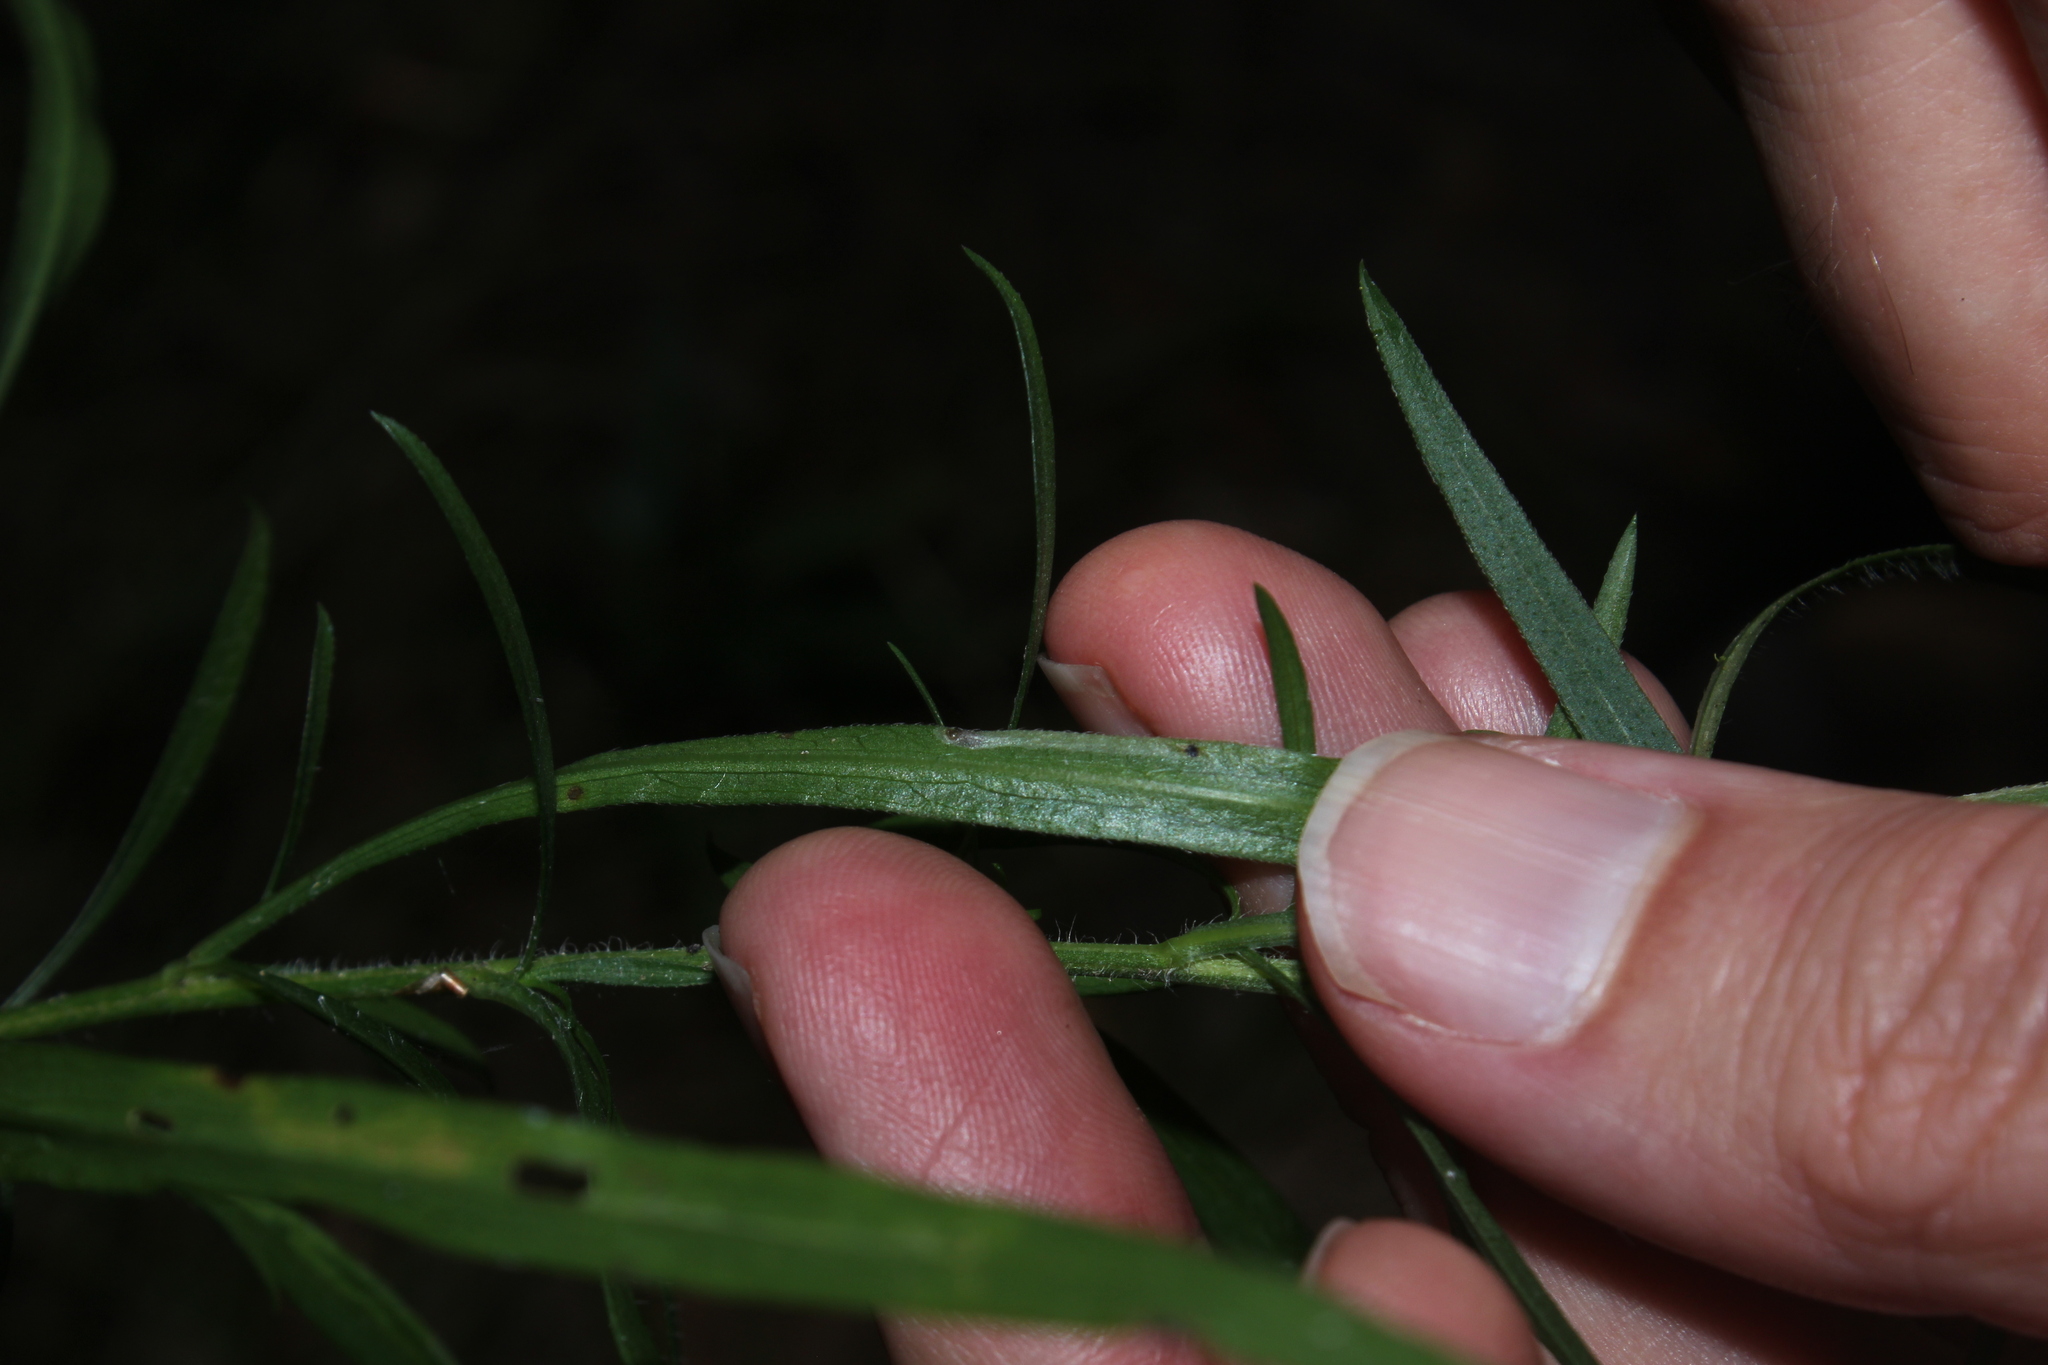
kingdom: Animalia
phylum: Arthropoda
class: Insecta
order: Diptera
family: Agromyzidae
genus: Ophiomyia
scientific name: Ophiomyia parda
